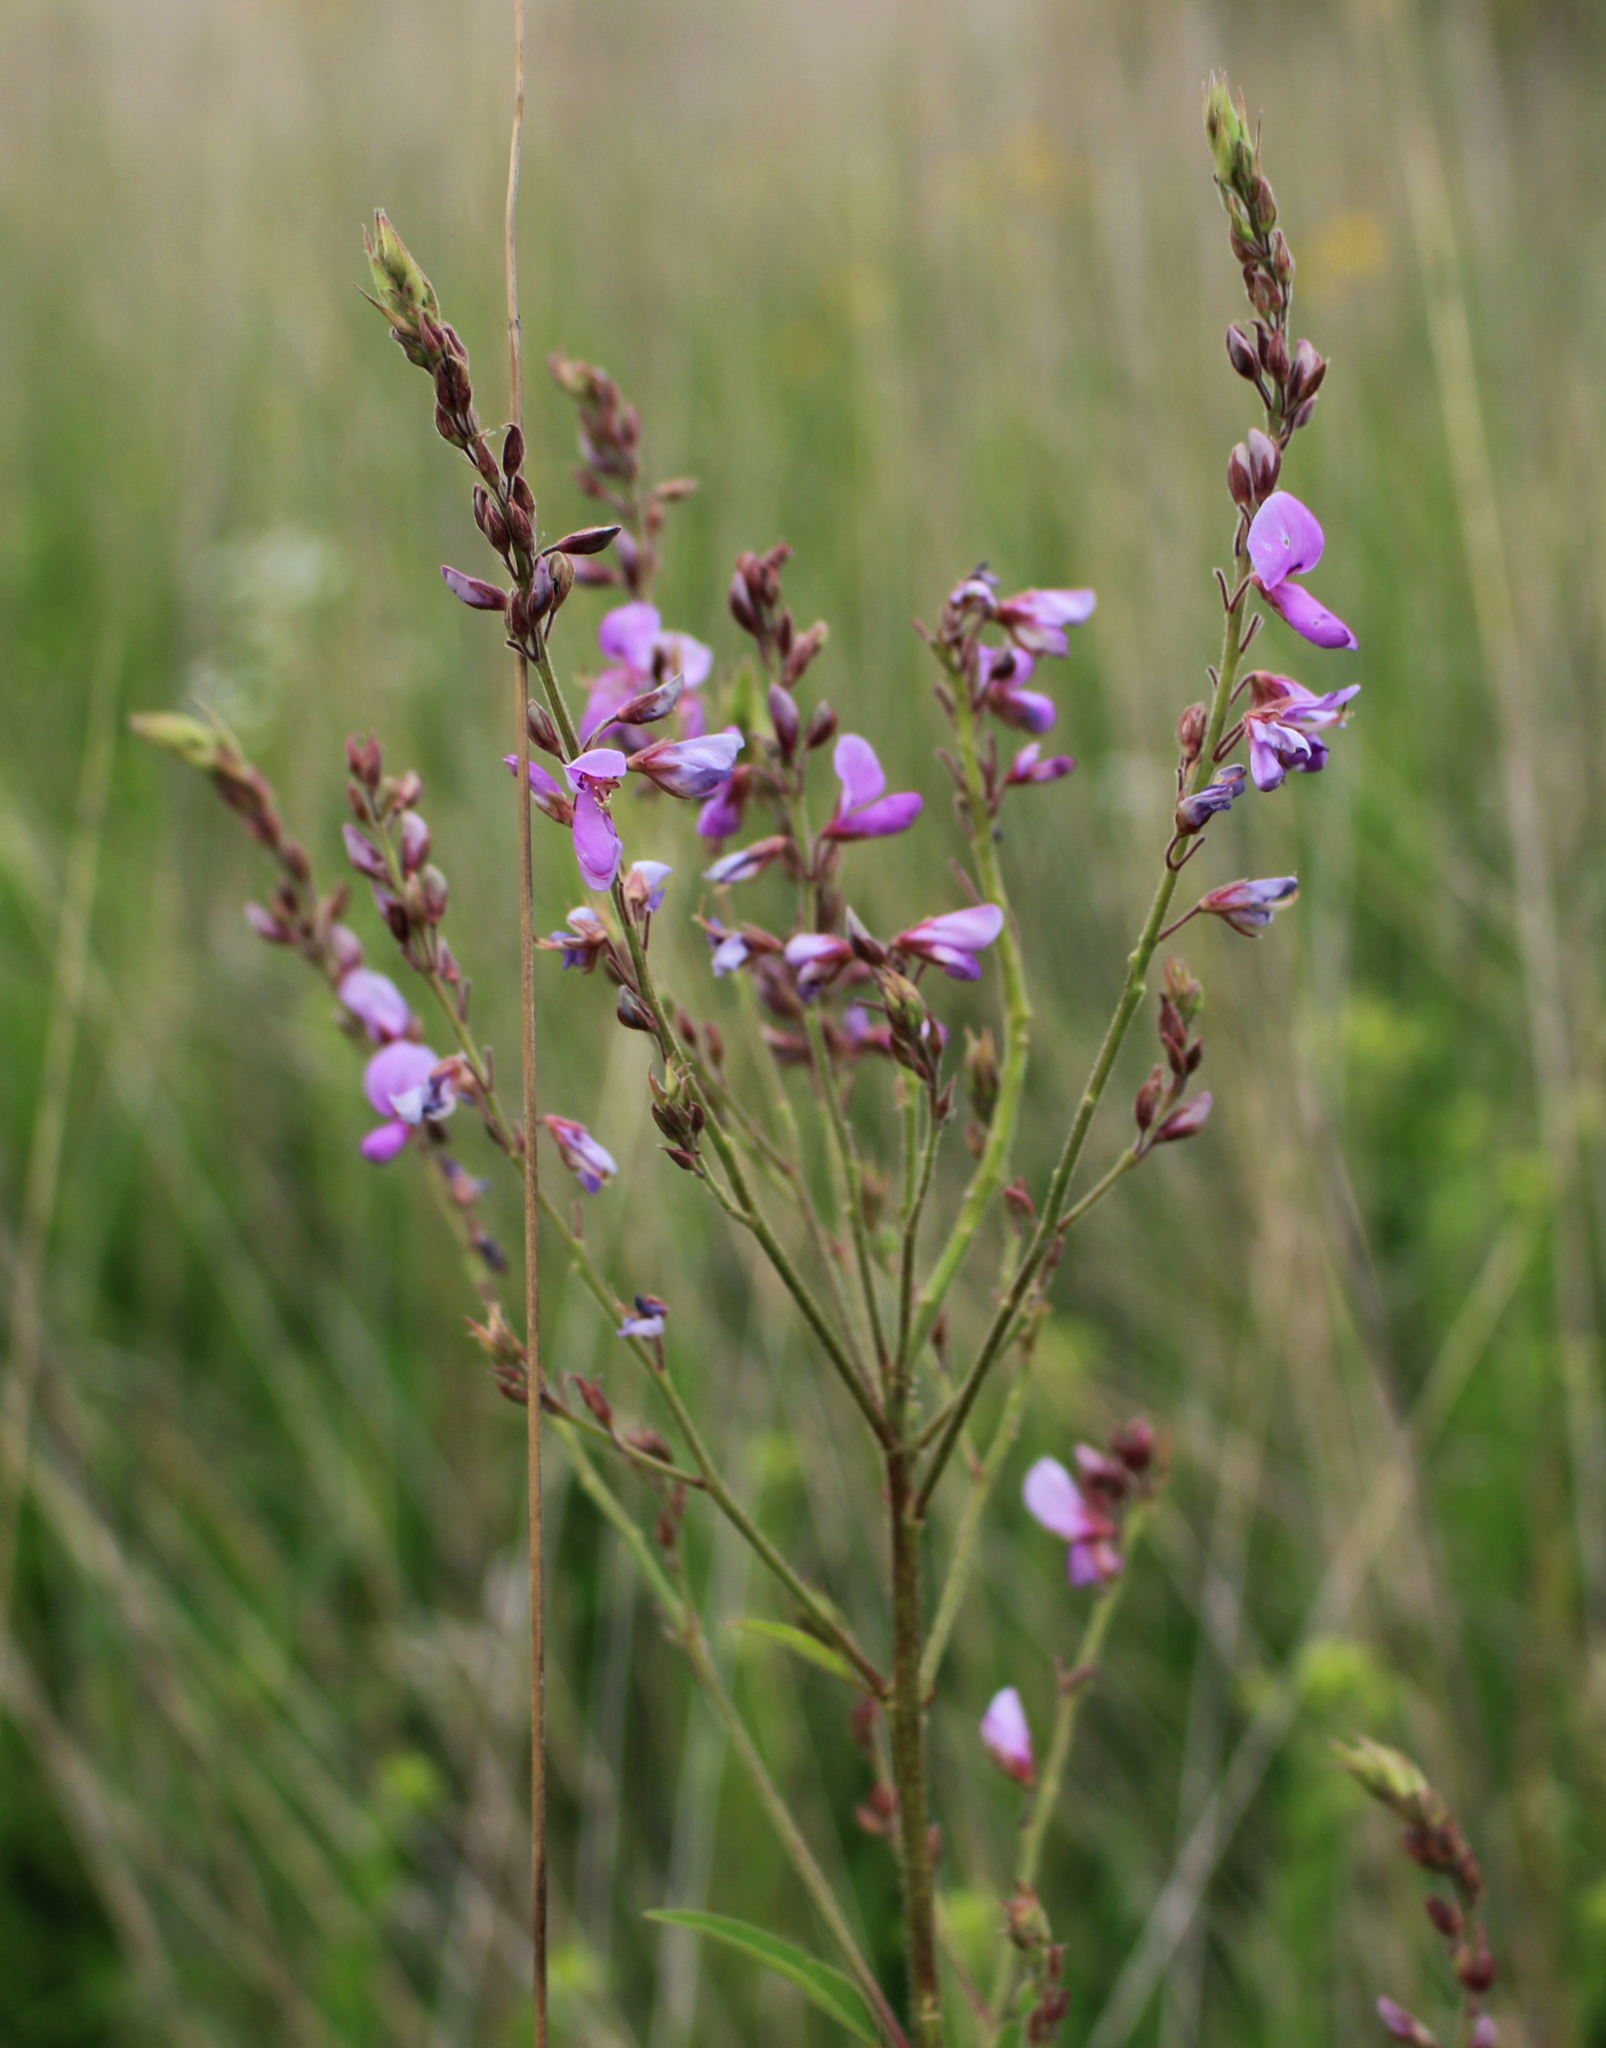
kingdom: Plantae
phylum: Tracheophyta
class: Magnoliopsida
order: Fabales
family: Fabaceae
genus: Desmodium
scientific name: Desmodium canadense
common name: Canada tick-trefoil
